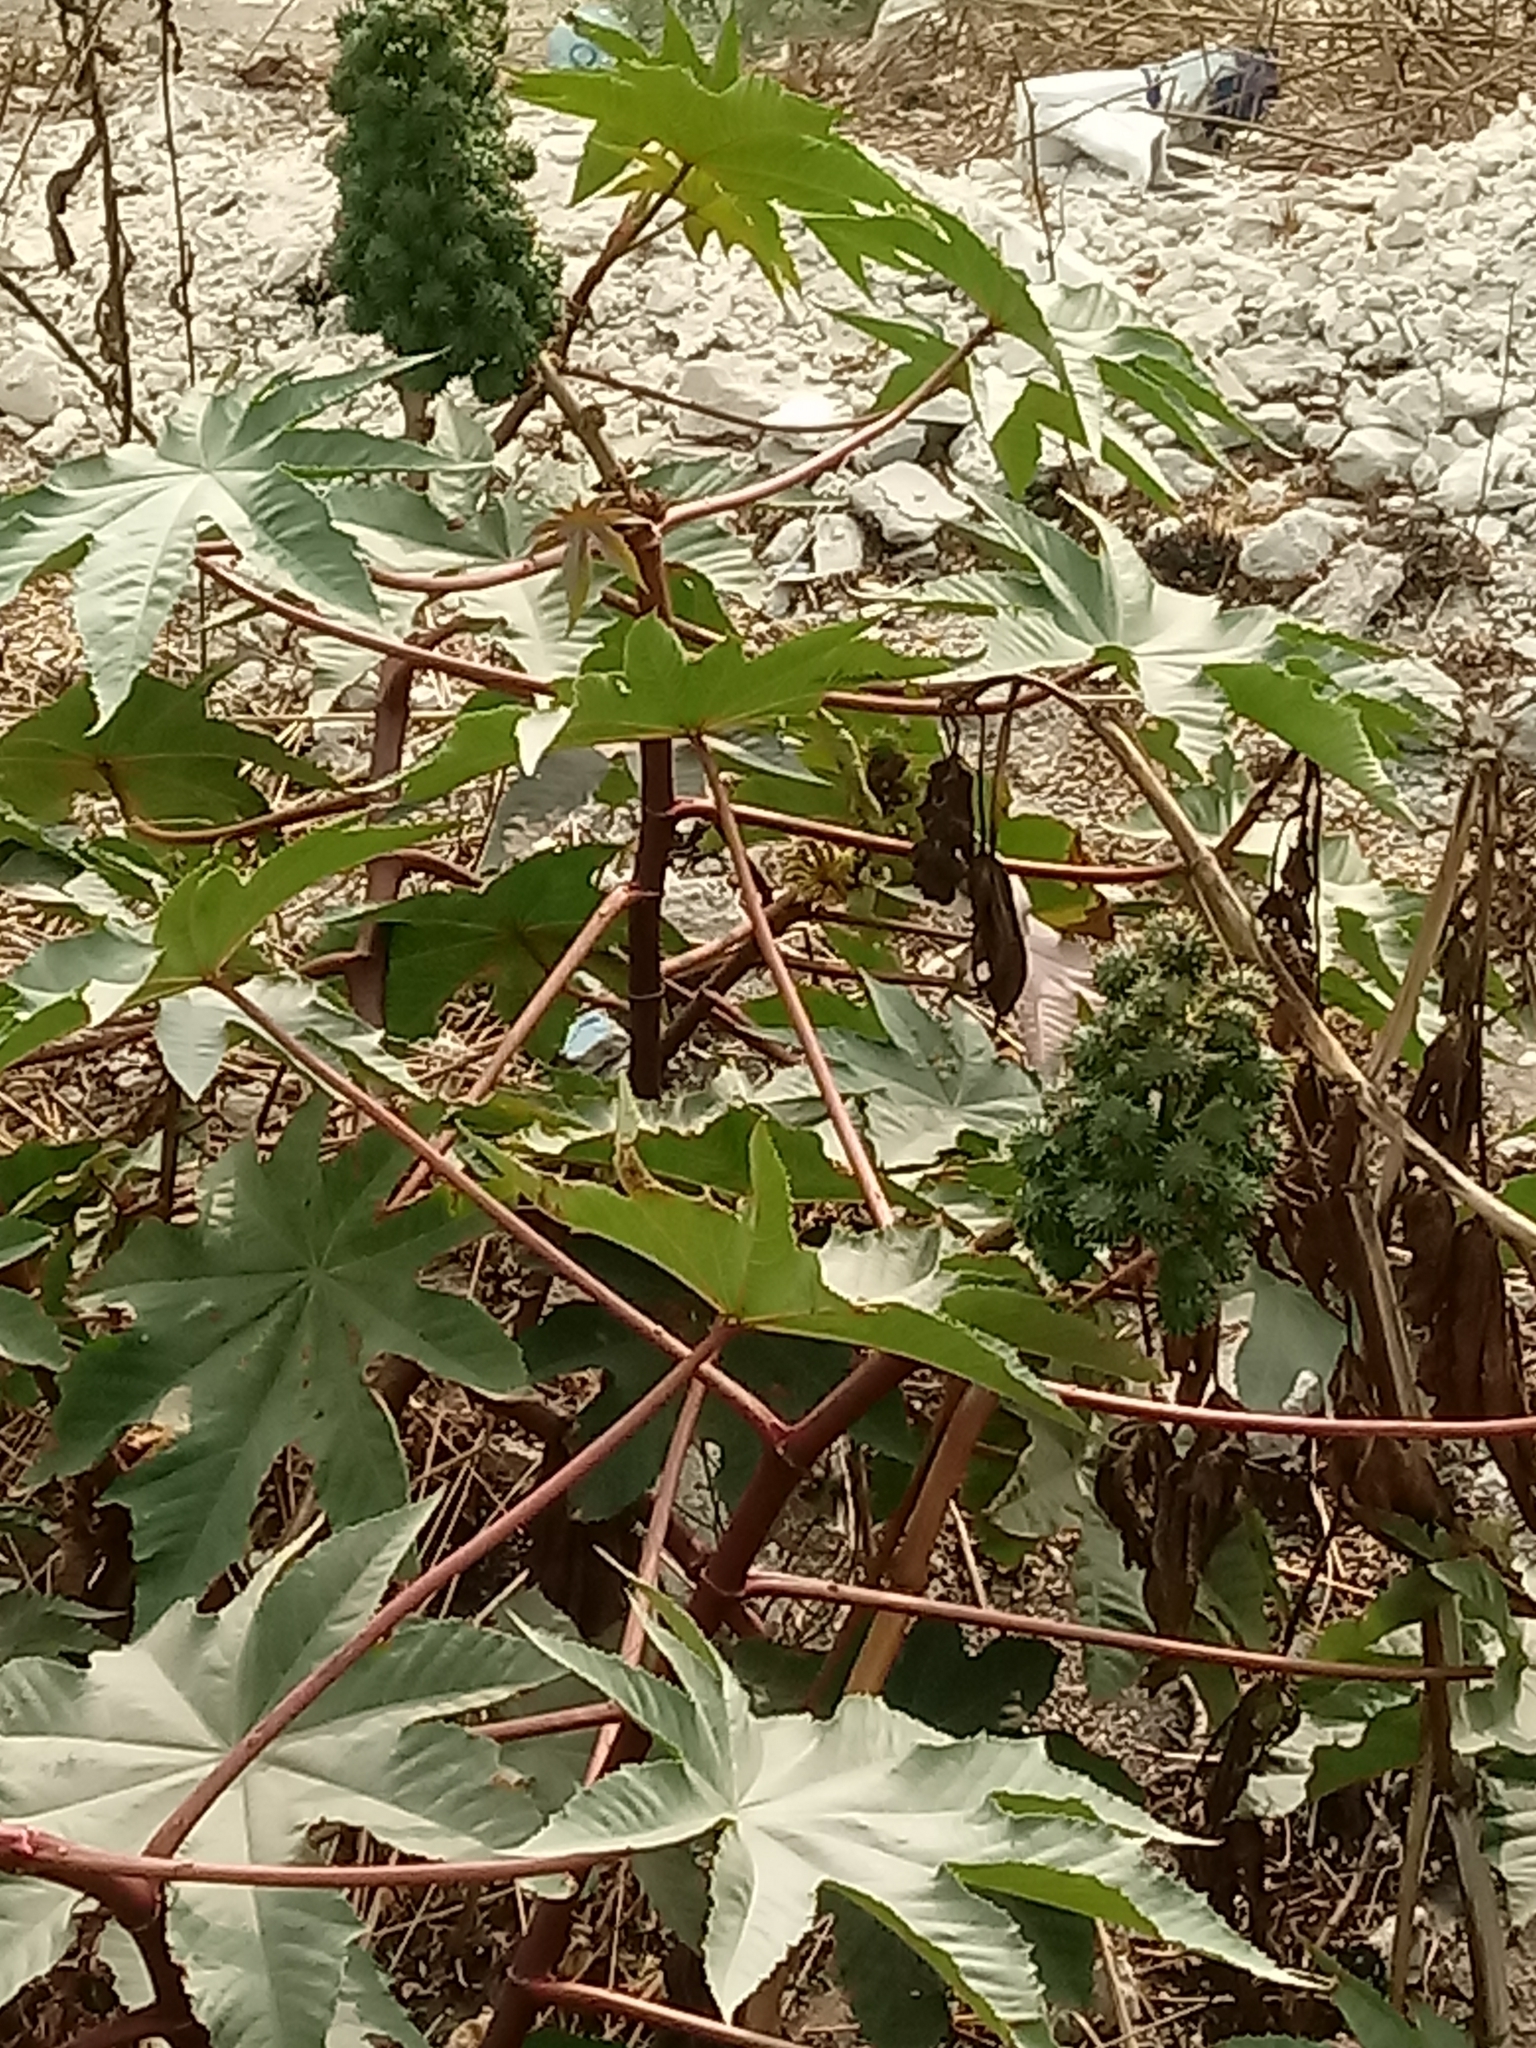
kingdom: Plantae
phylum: Tracheophyta
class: Magnoliopsida
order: Malpighiales
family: Euphorbiaceae
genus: Ricinus
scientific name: Ricinus communis
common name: Castor-oil-plant
